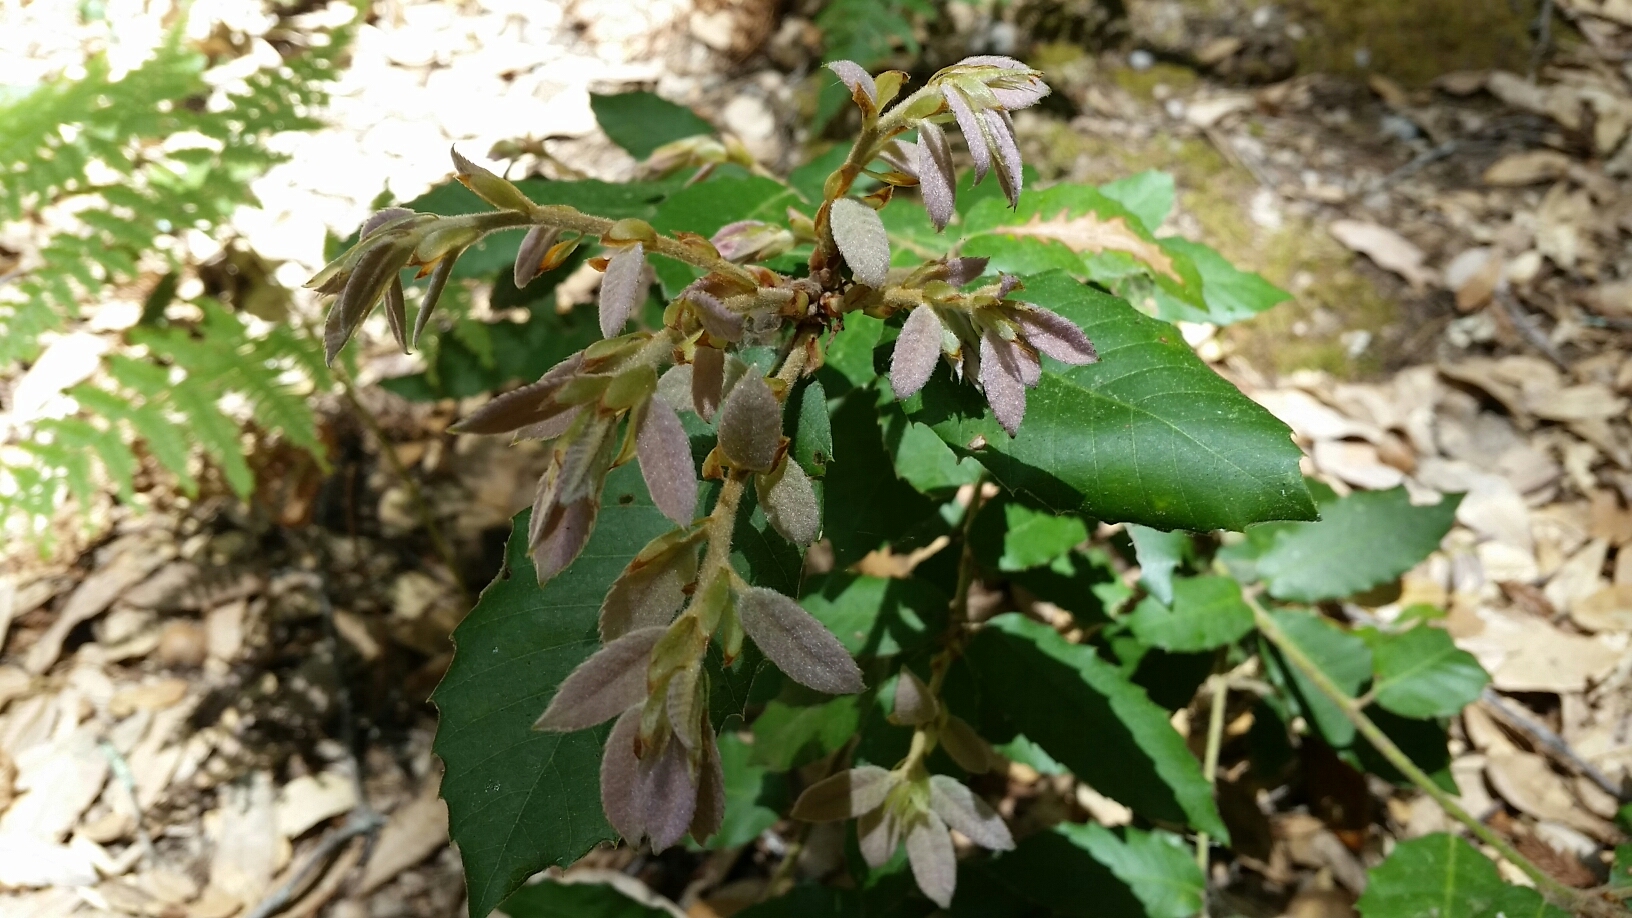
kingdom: Plantae
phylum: Tracheophyta
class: Magnoliopsida
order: Fagales
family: Fagaceae
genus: Notholithocarpus
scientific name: Notholithocarpus densiflorus
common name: Tan bark oak
